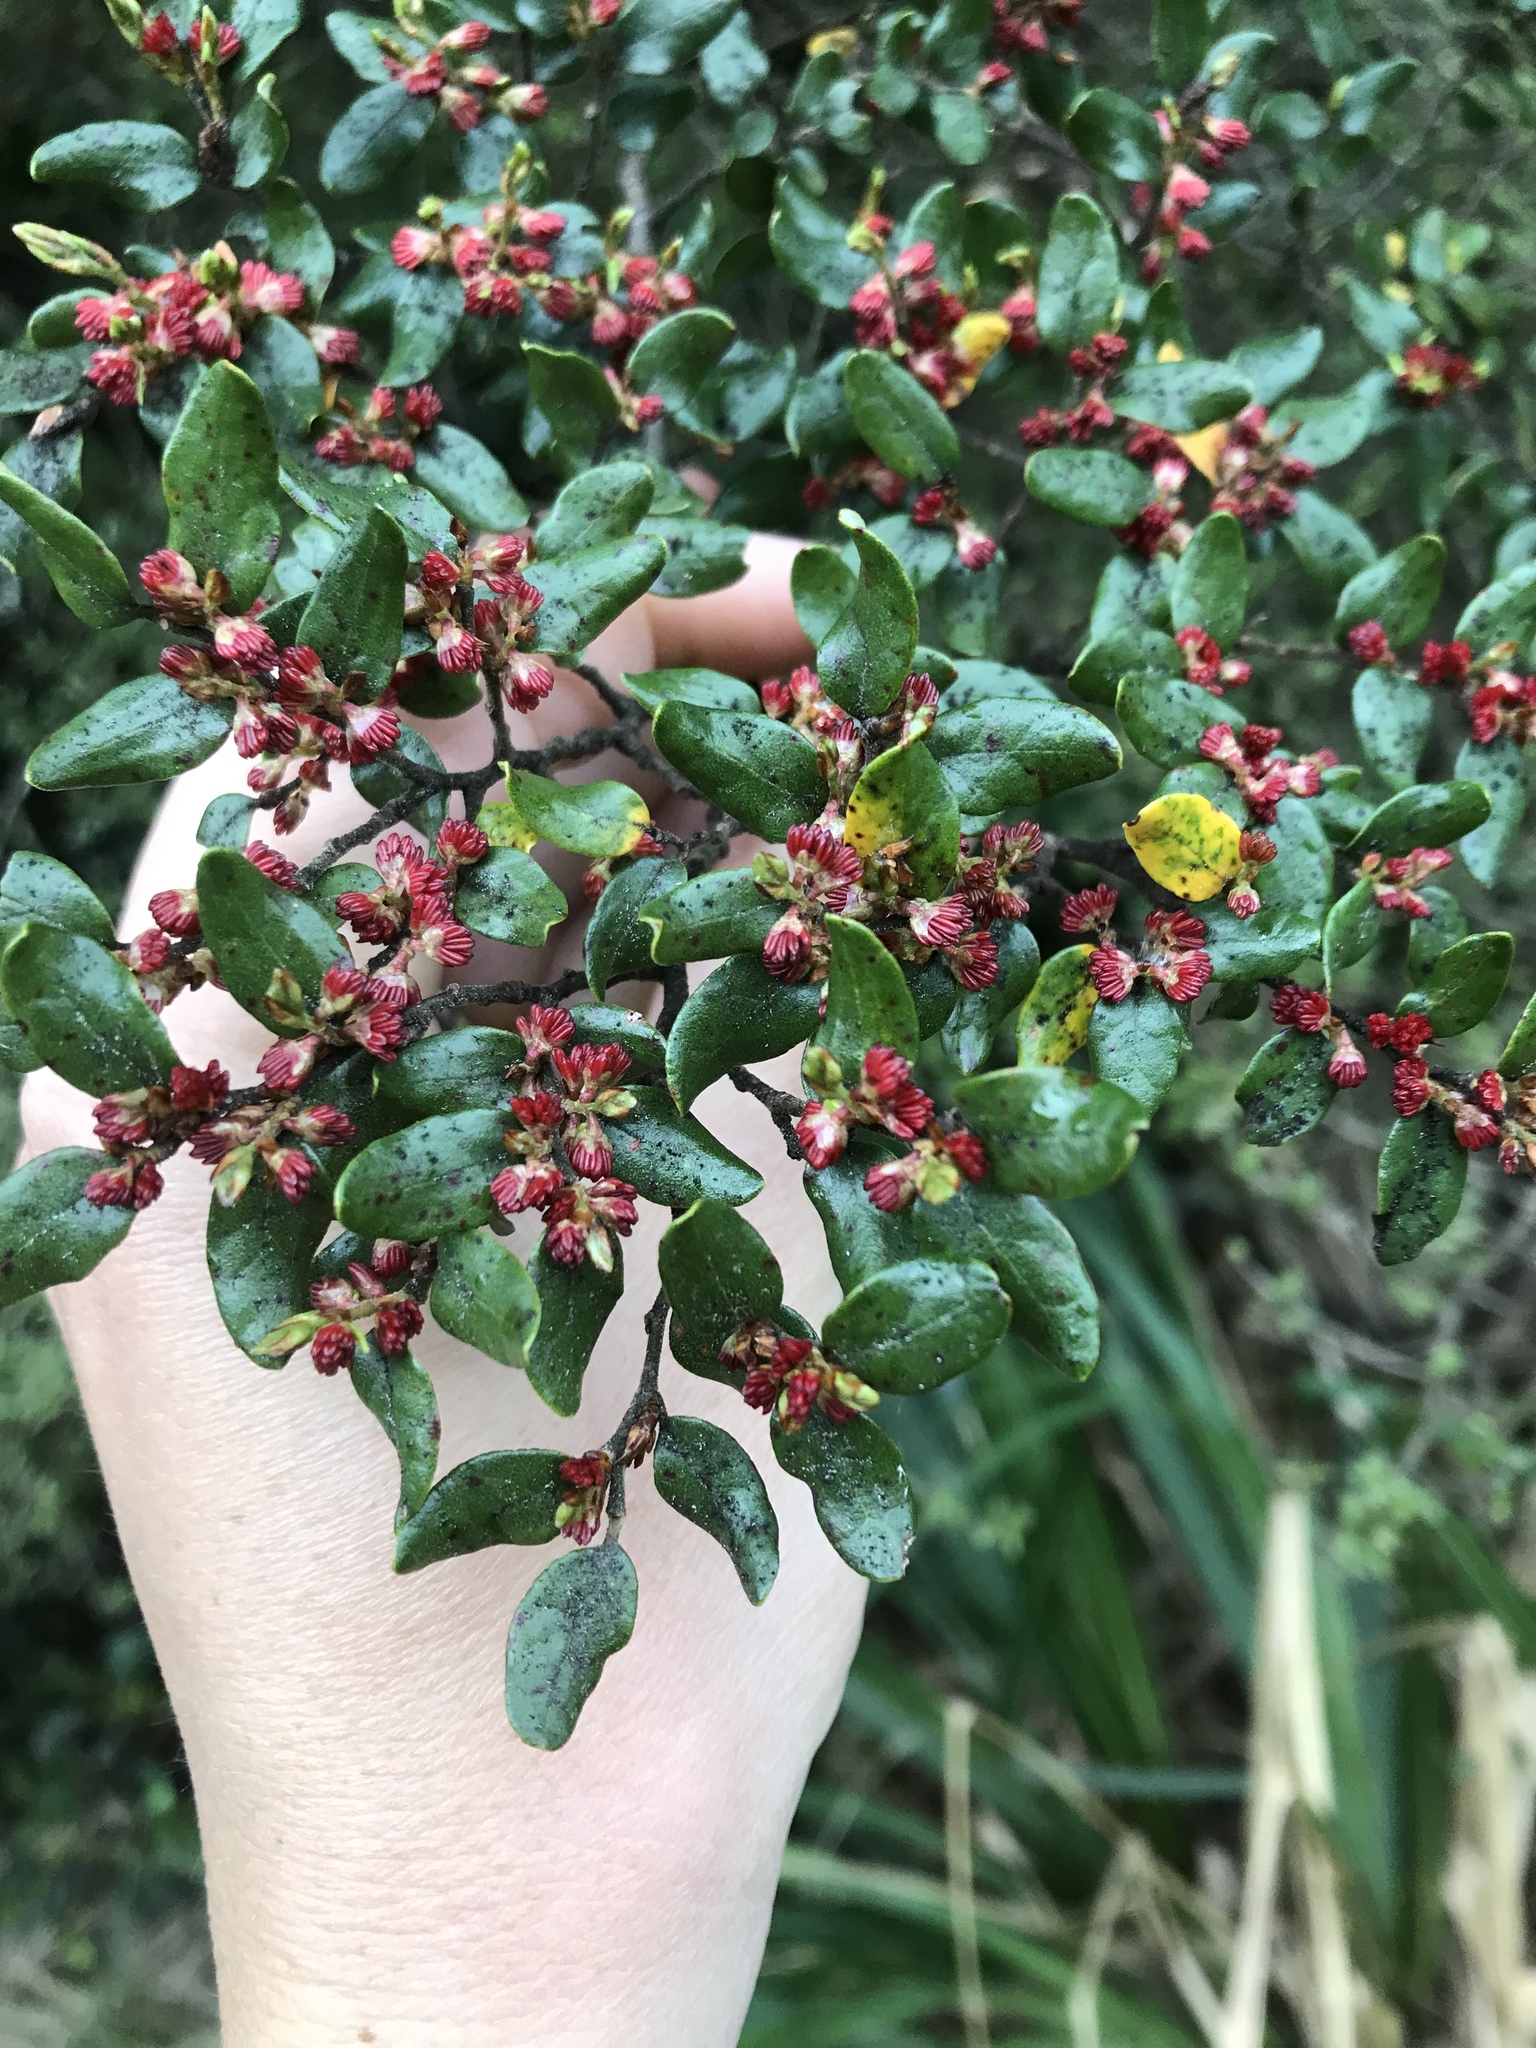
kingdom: Plantae
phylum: Tracheophyta
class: Magnoliopsida
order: Fagales
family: Nothofagaceae
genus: Nothofagus
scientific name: Nothofagus cliffortioides
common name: Mountain beech
